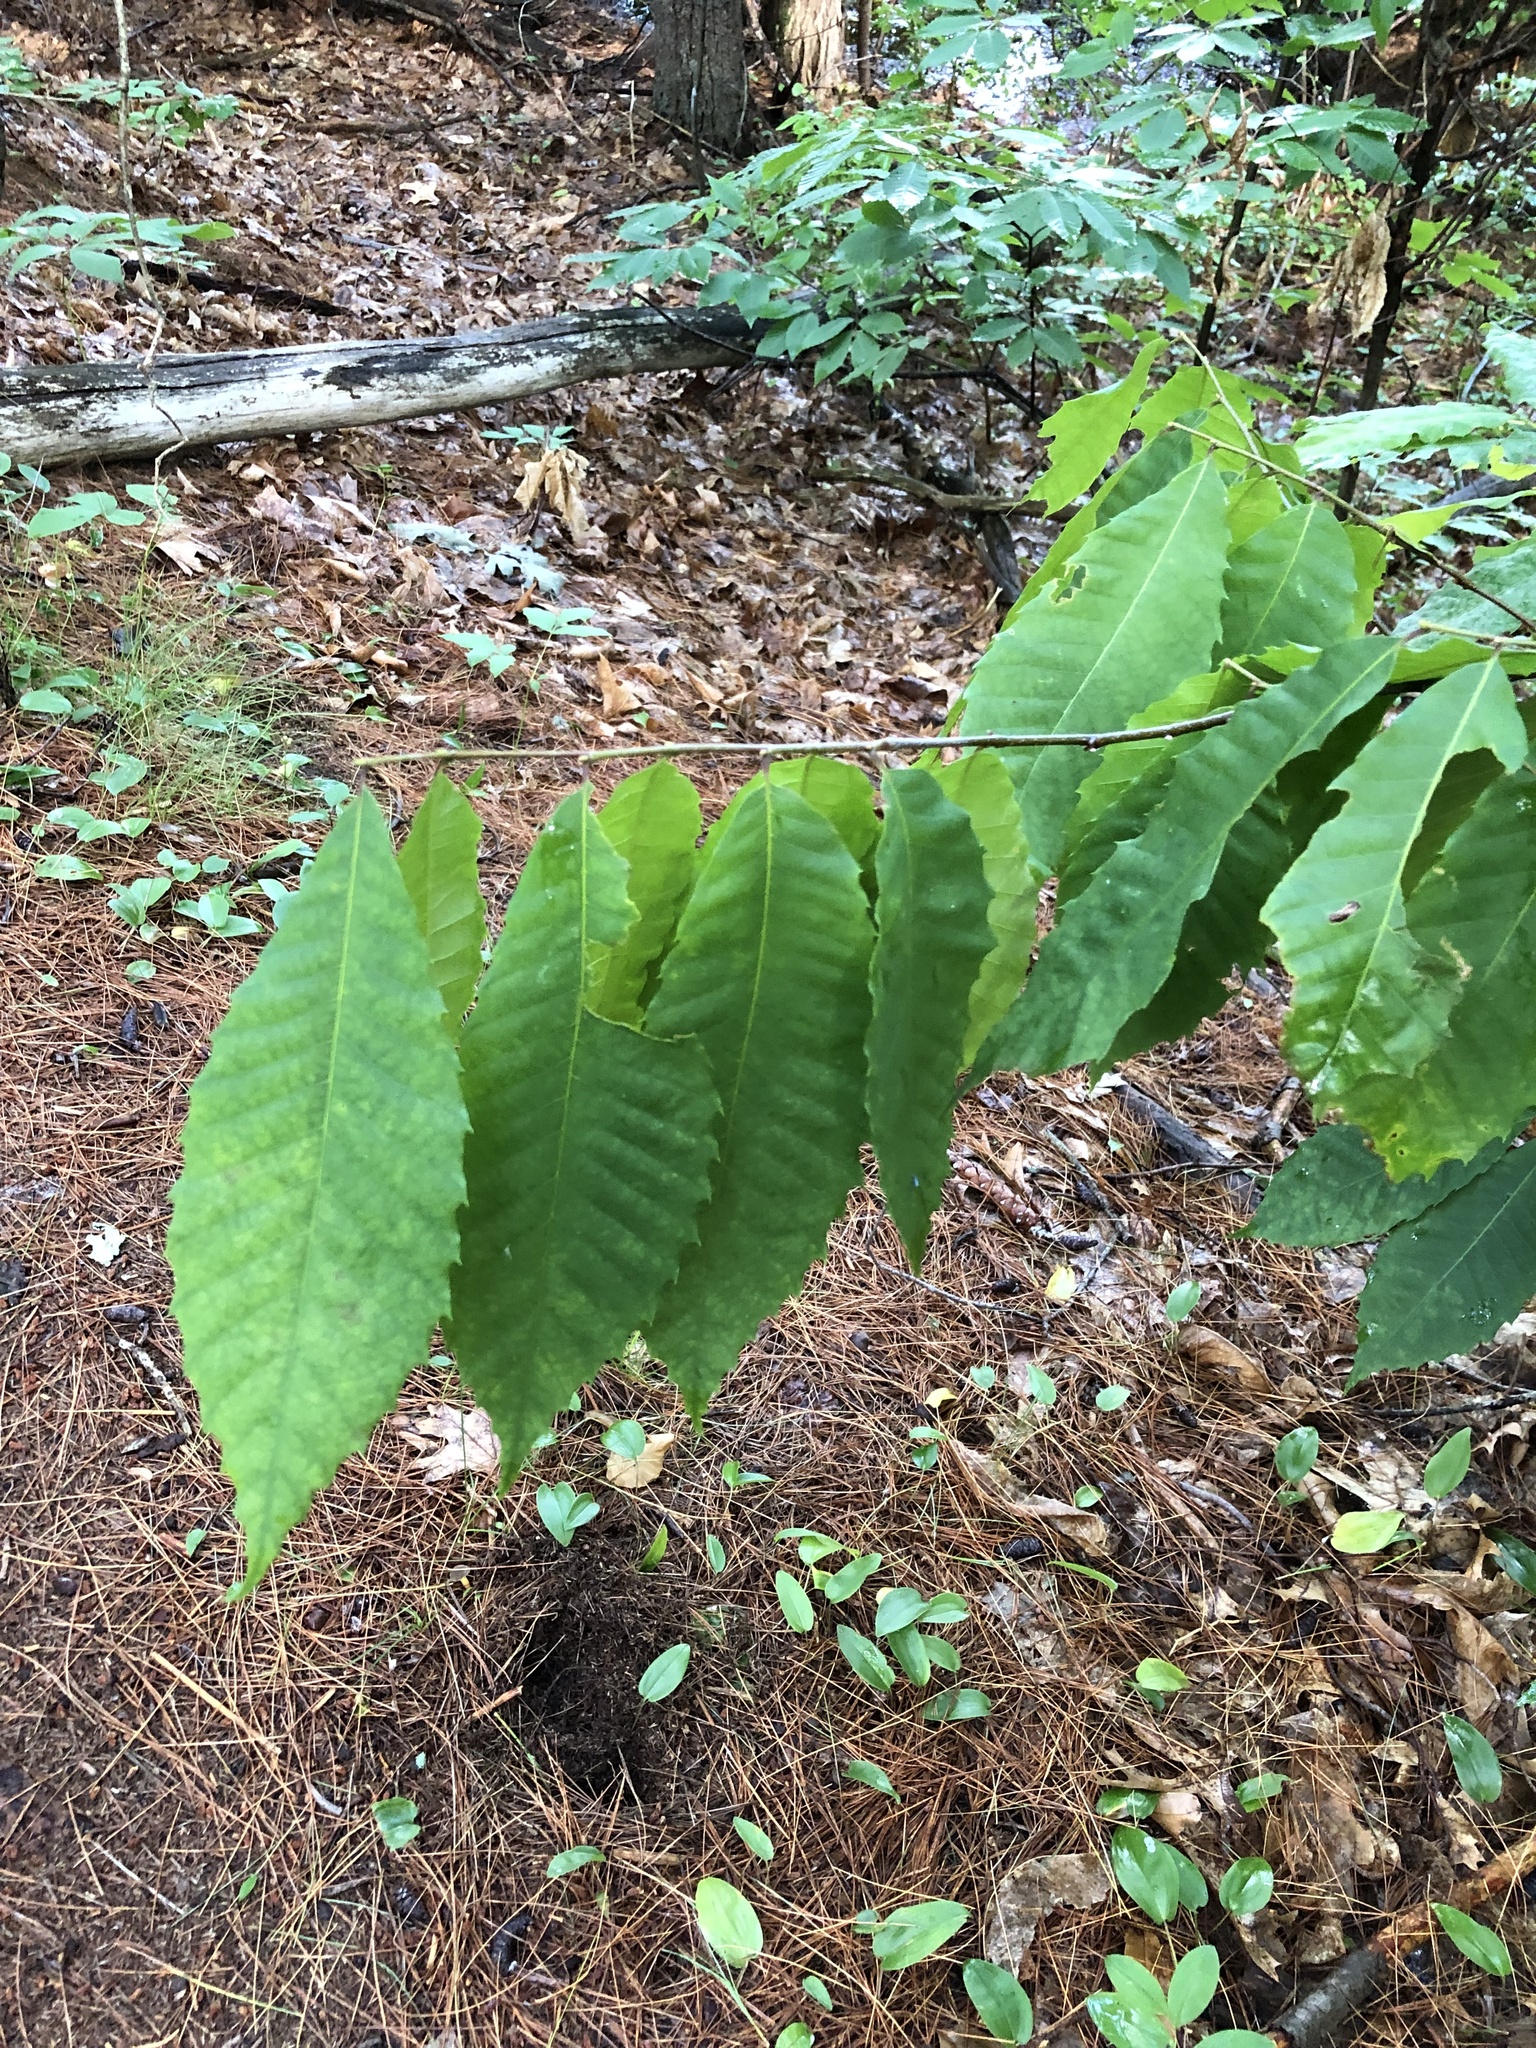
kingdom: Plantae
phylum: Tracheophyta
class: Magnoliopsida
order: Fagales
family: Fagaceae
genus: Castanea
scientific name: Castanea dentata
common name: American chestnut
